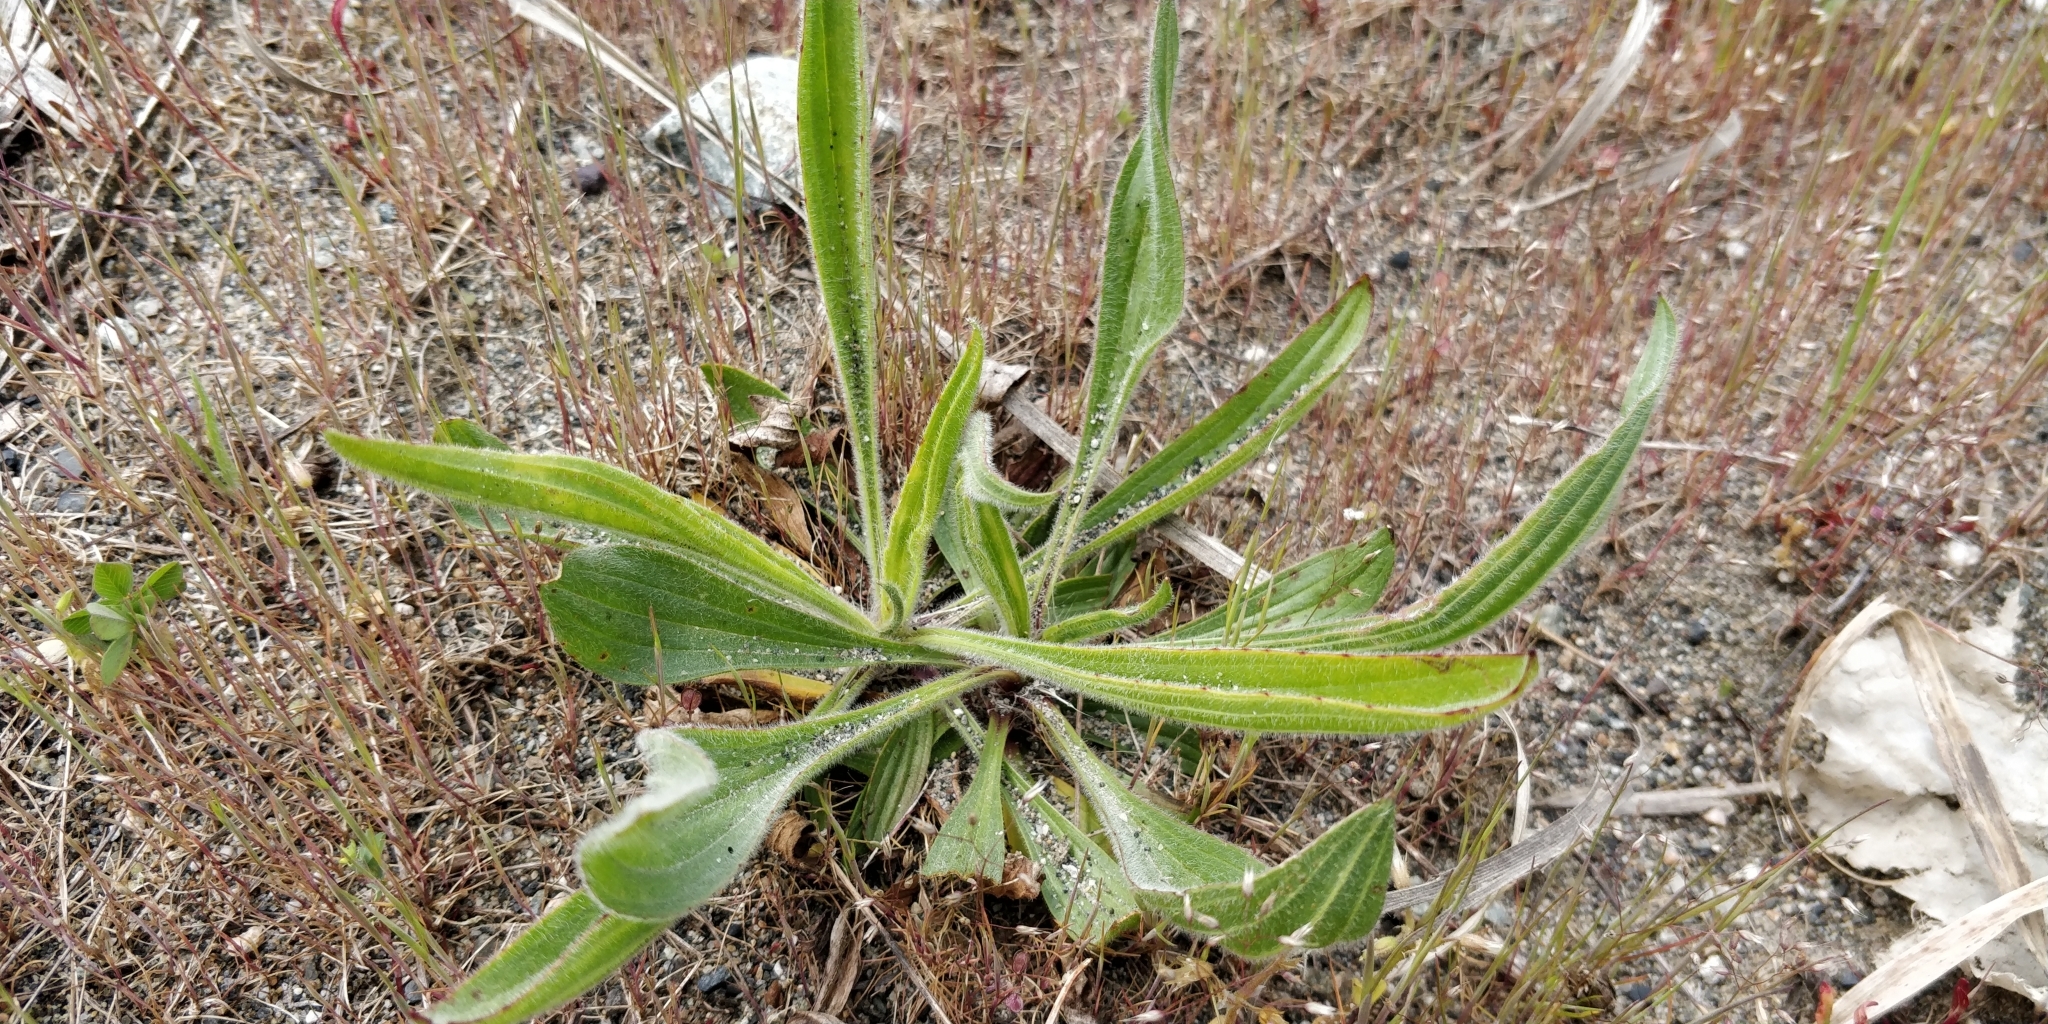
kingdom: Plantae
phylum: Tracheophyta
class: Magnoliopsida
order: Lamiales
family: Plantaginaceae
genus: Plantago
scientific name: Plantago lanceolata
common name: Ribwort plantain
